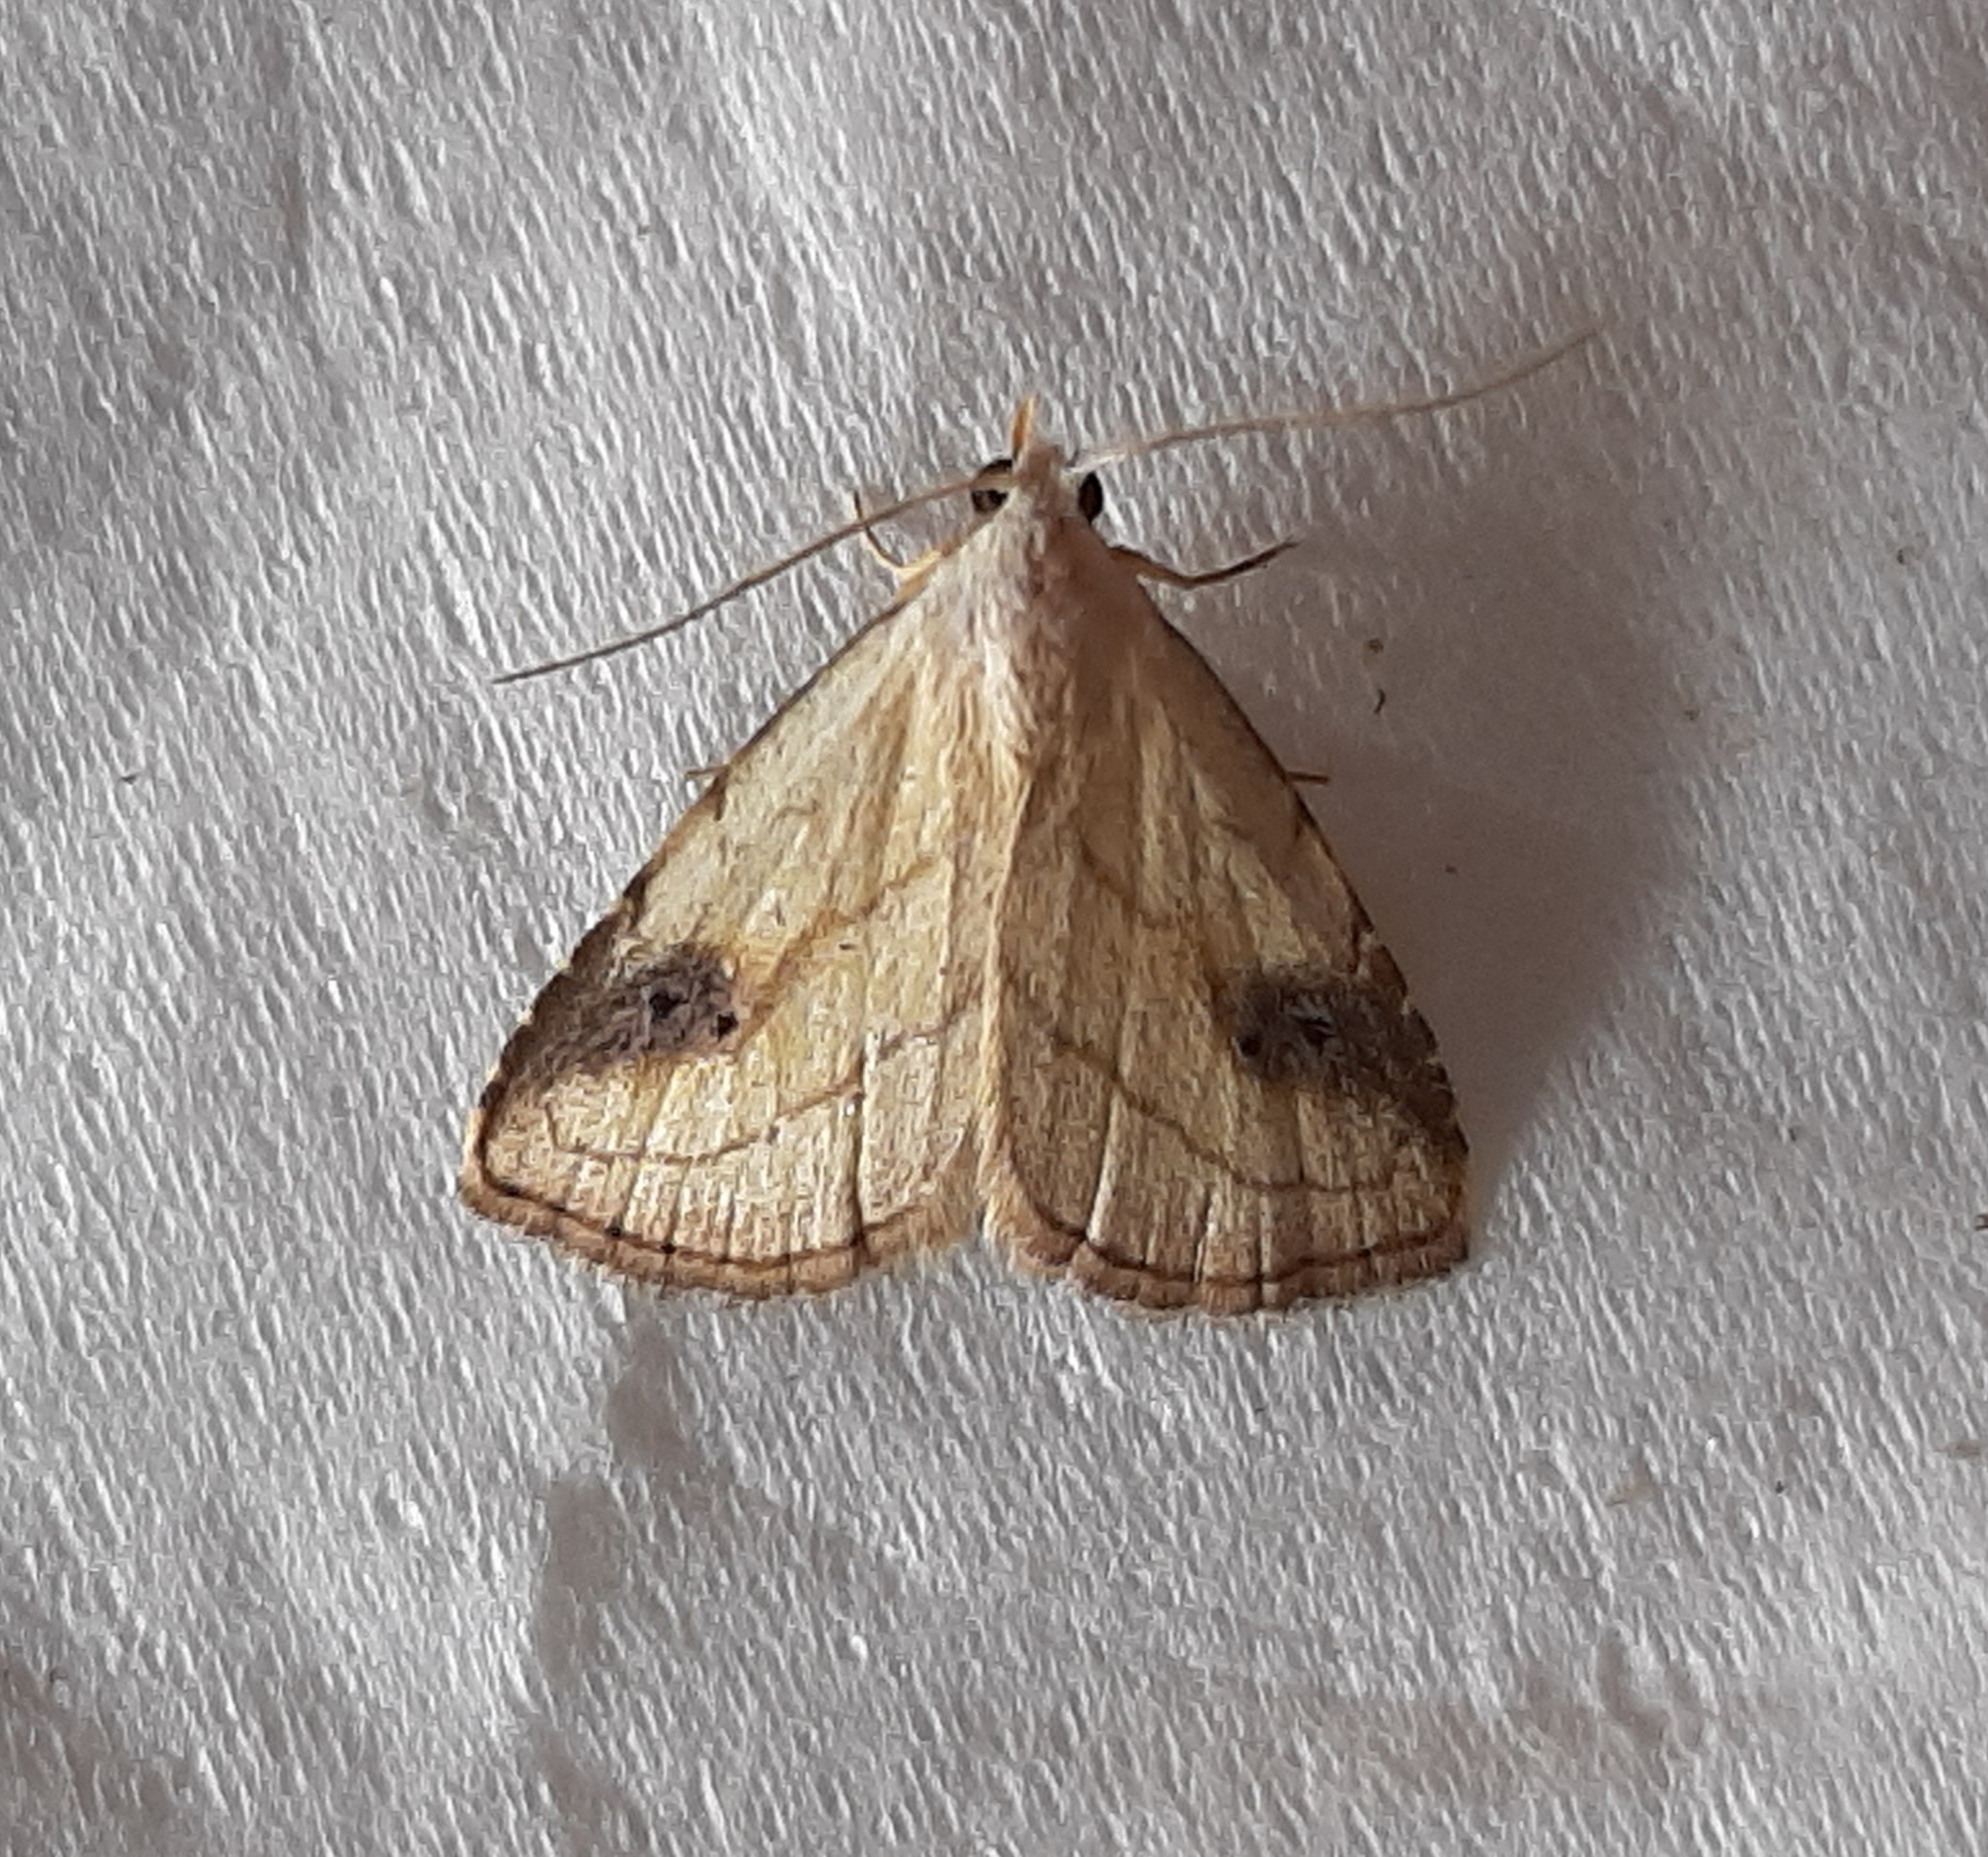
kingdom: Animalia
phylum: Arthropoda
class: Insecta
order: Lepidoptera
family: Erebidae
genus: Rivula
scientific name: Rivula propinqualis
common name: Spotted grass moth
